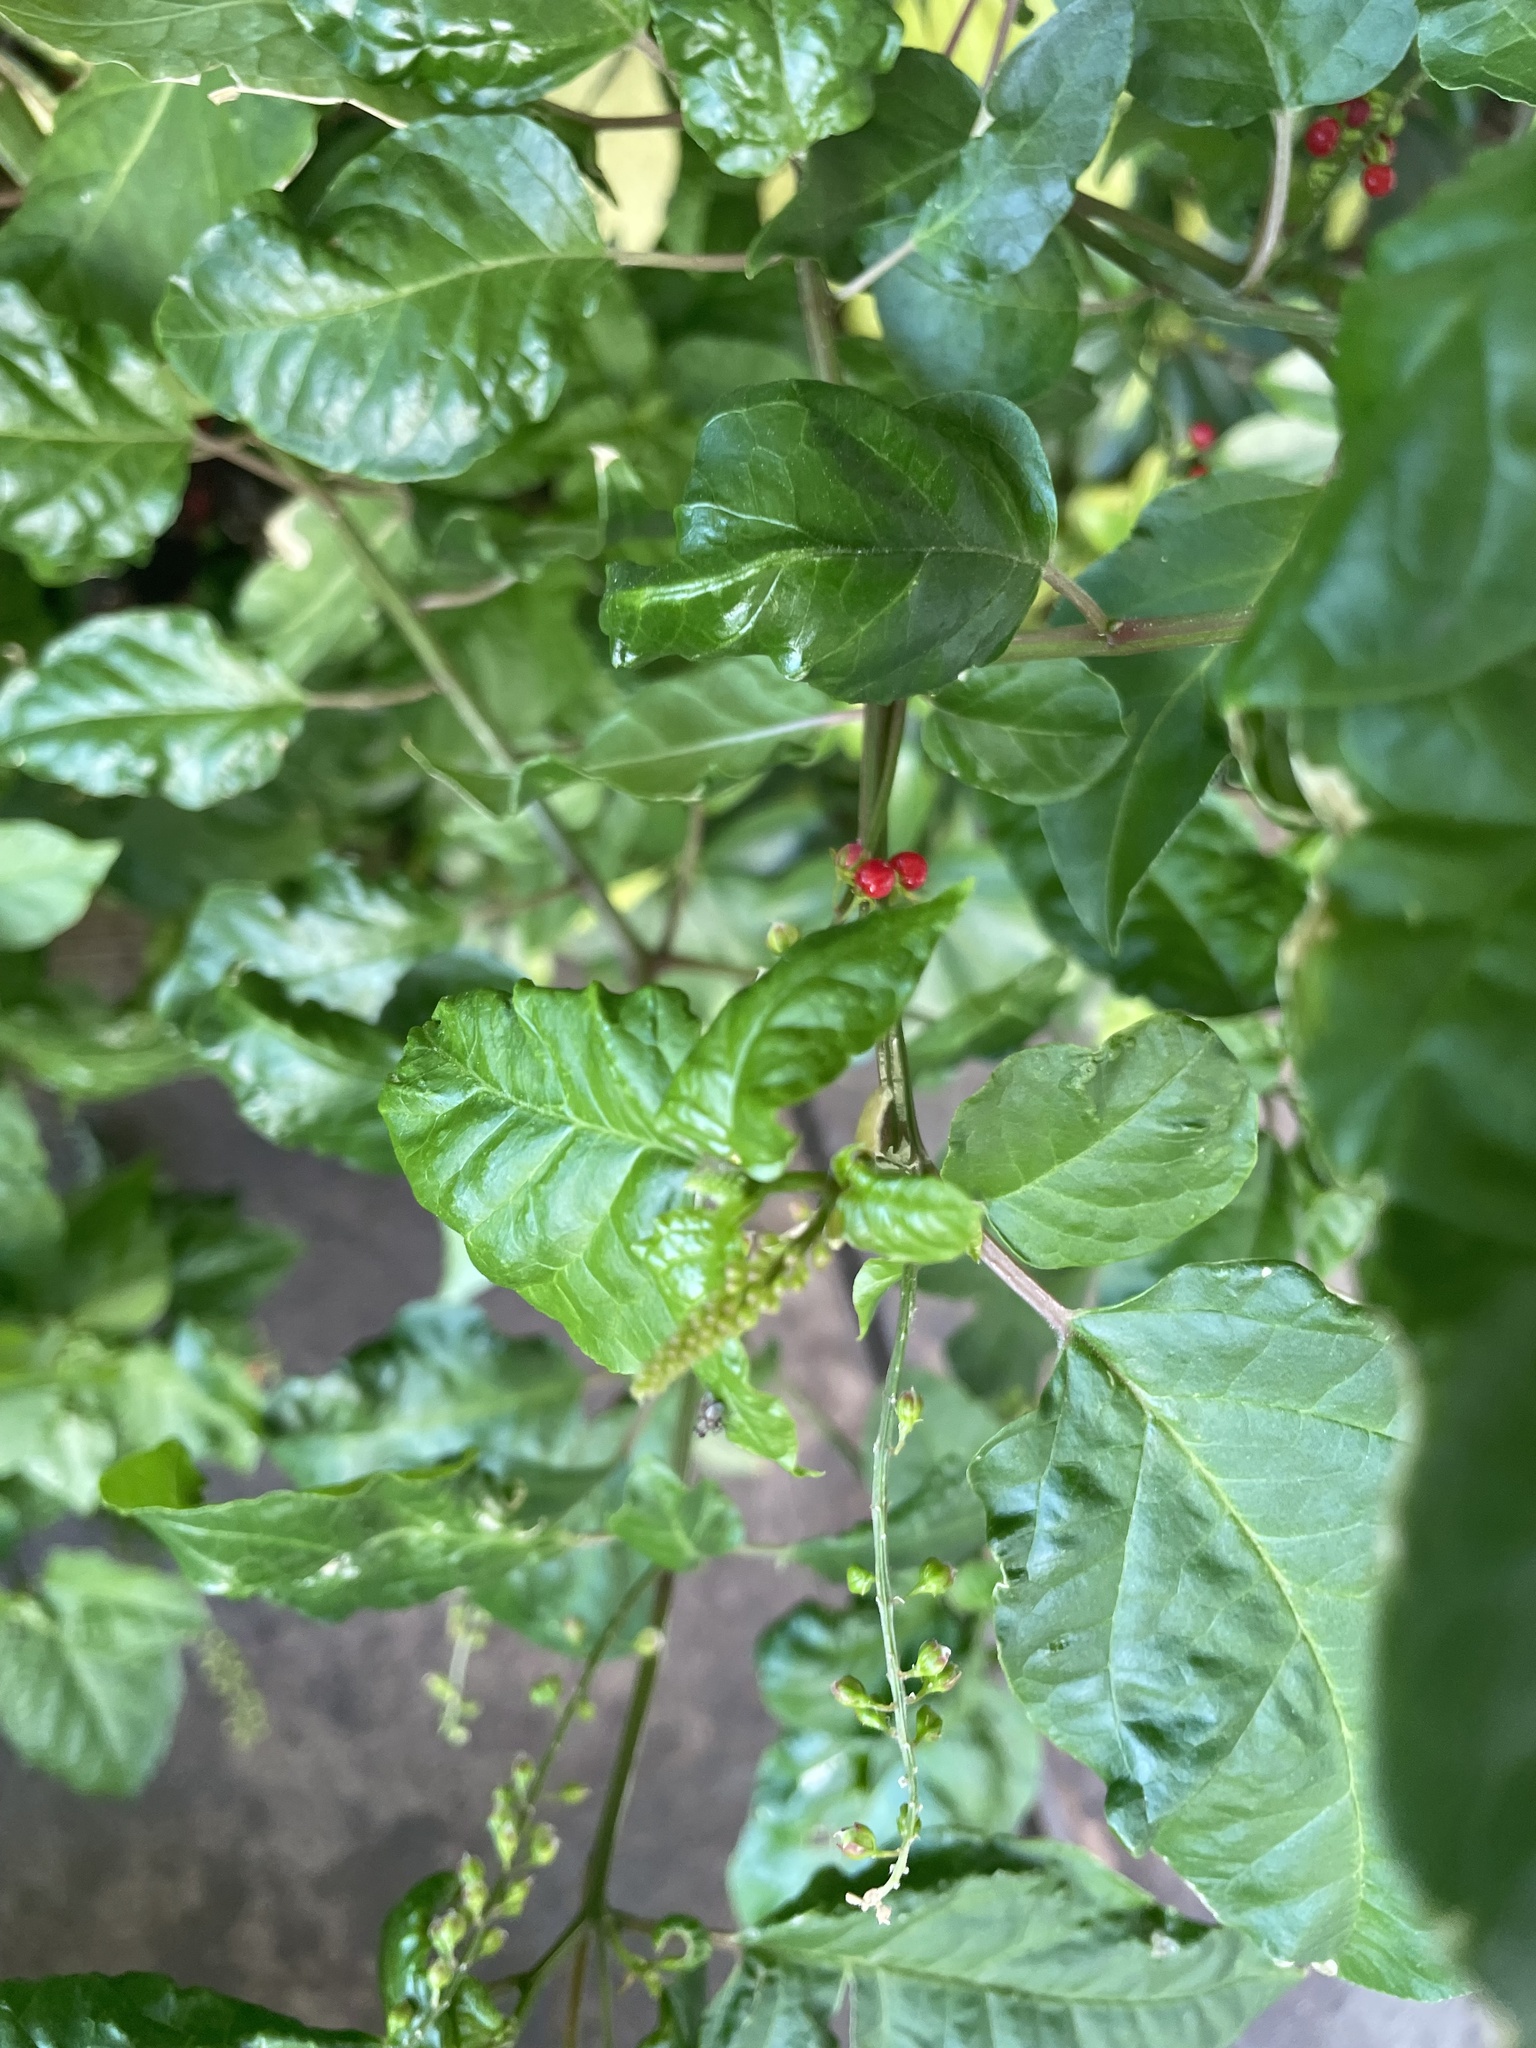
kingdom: Plantae
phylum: Tracheophyta
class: Magnoliopsida
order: Caryophyllales
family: Phytolaccaceae
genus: Rivina
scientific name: Rivina humilis
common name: Rougeplant
